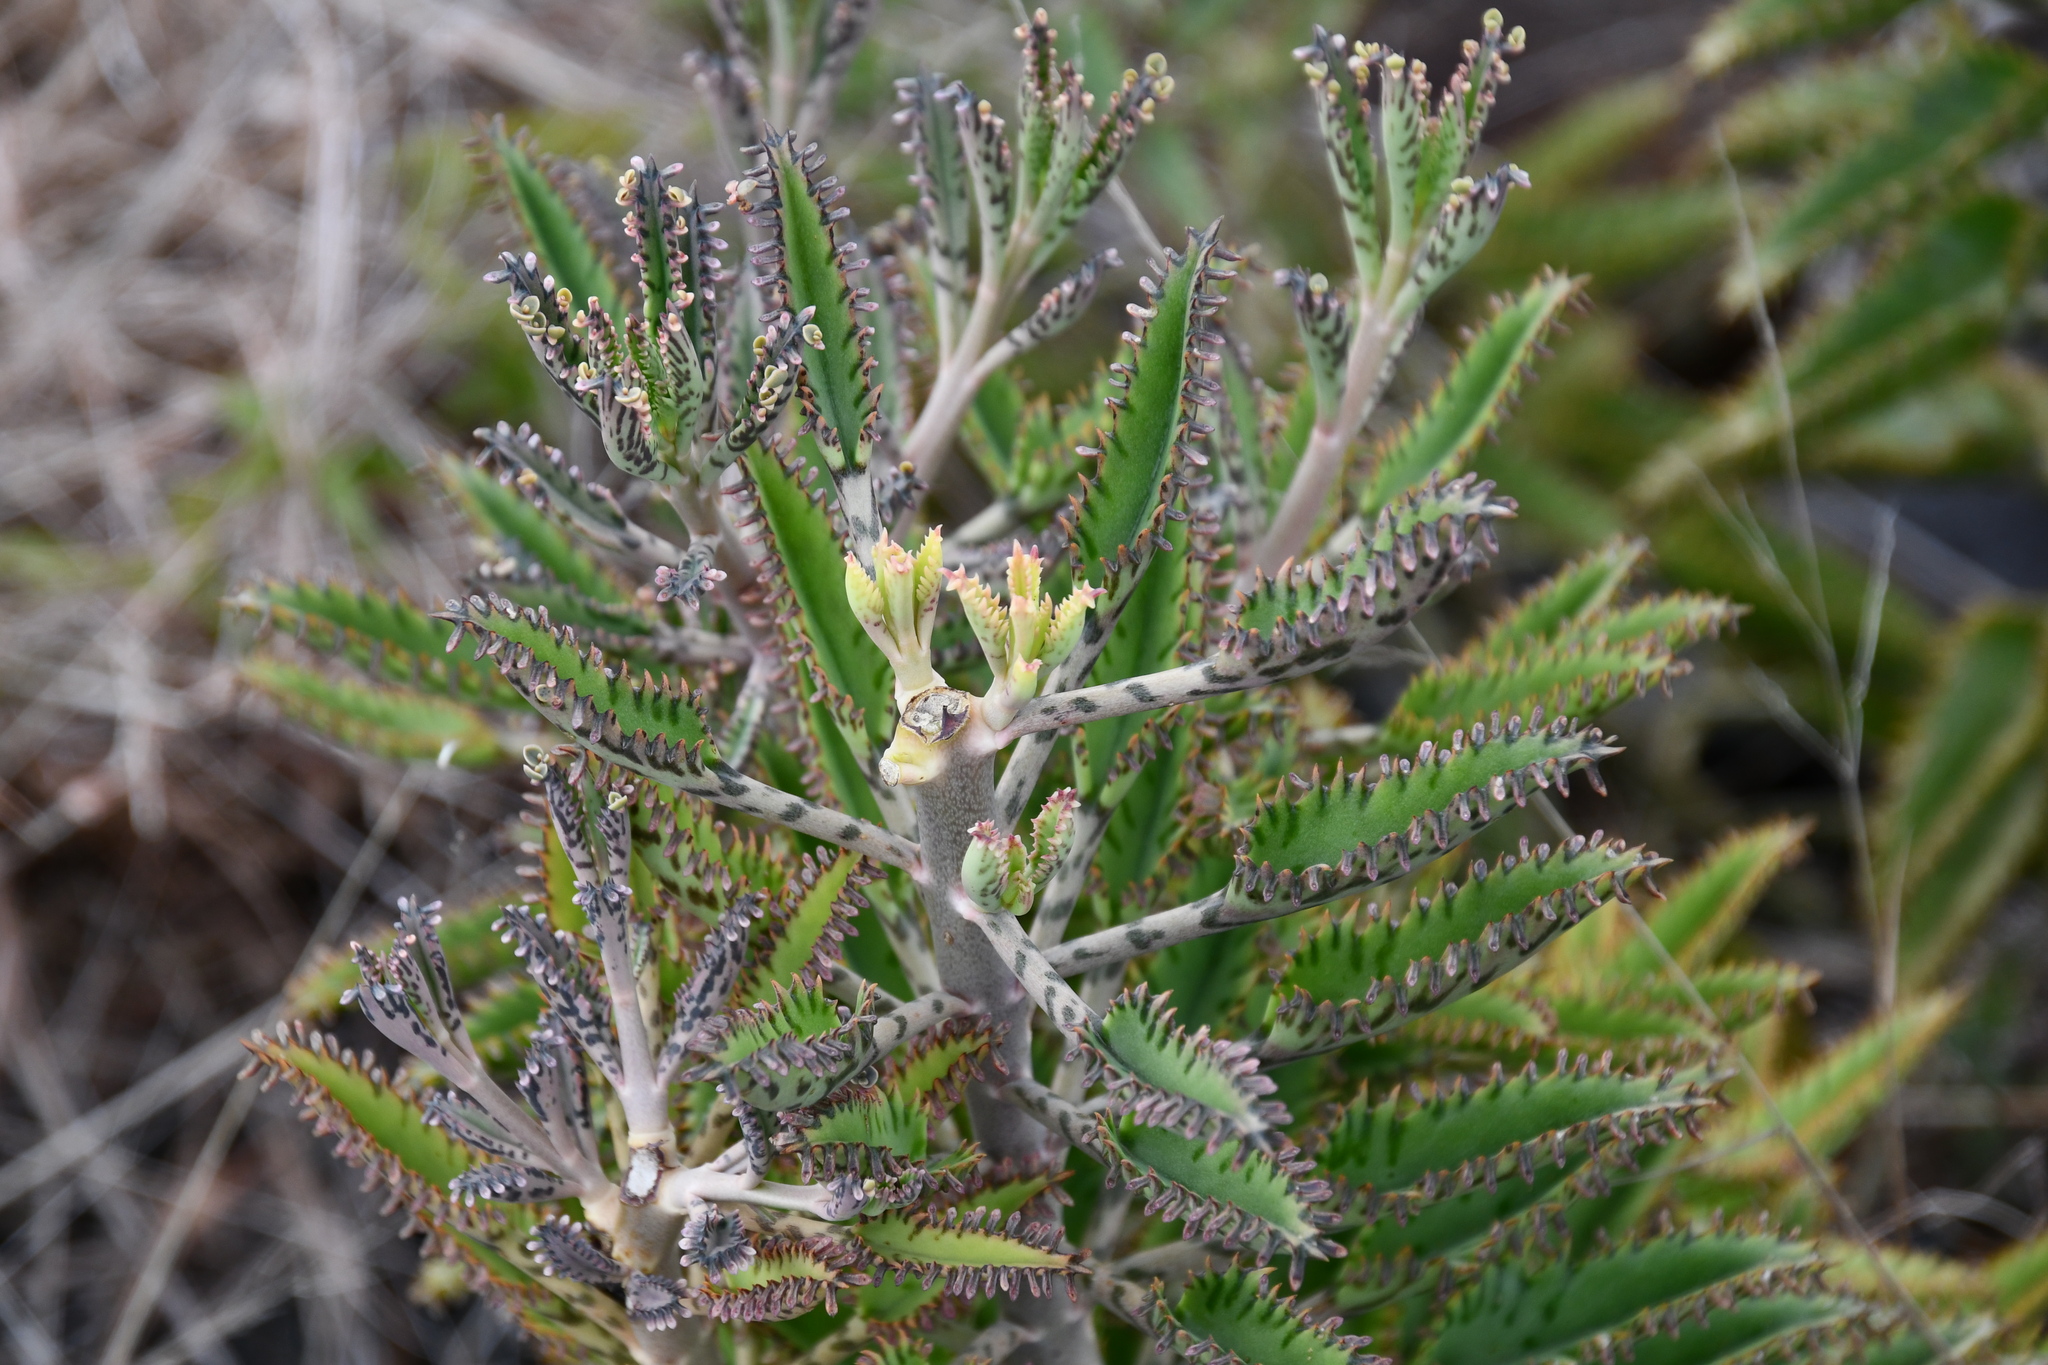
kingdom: Plantae
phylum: Tracheophyta
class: Magnoliopsida
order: Saxifragales
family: Crassulaceae
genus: Kalanchoe
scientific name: Kalanchoe houghtonii
